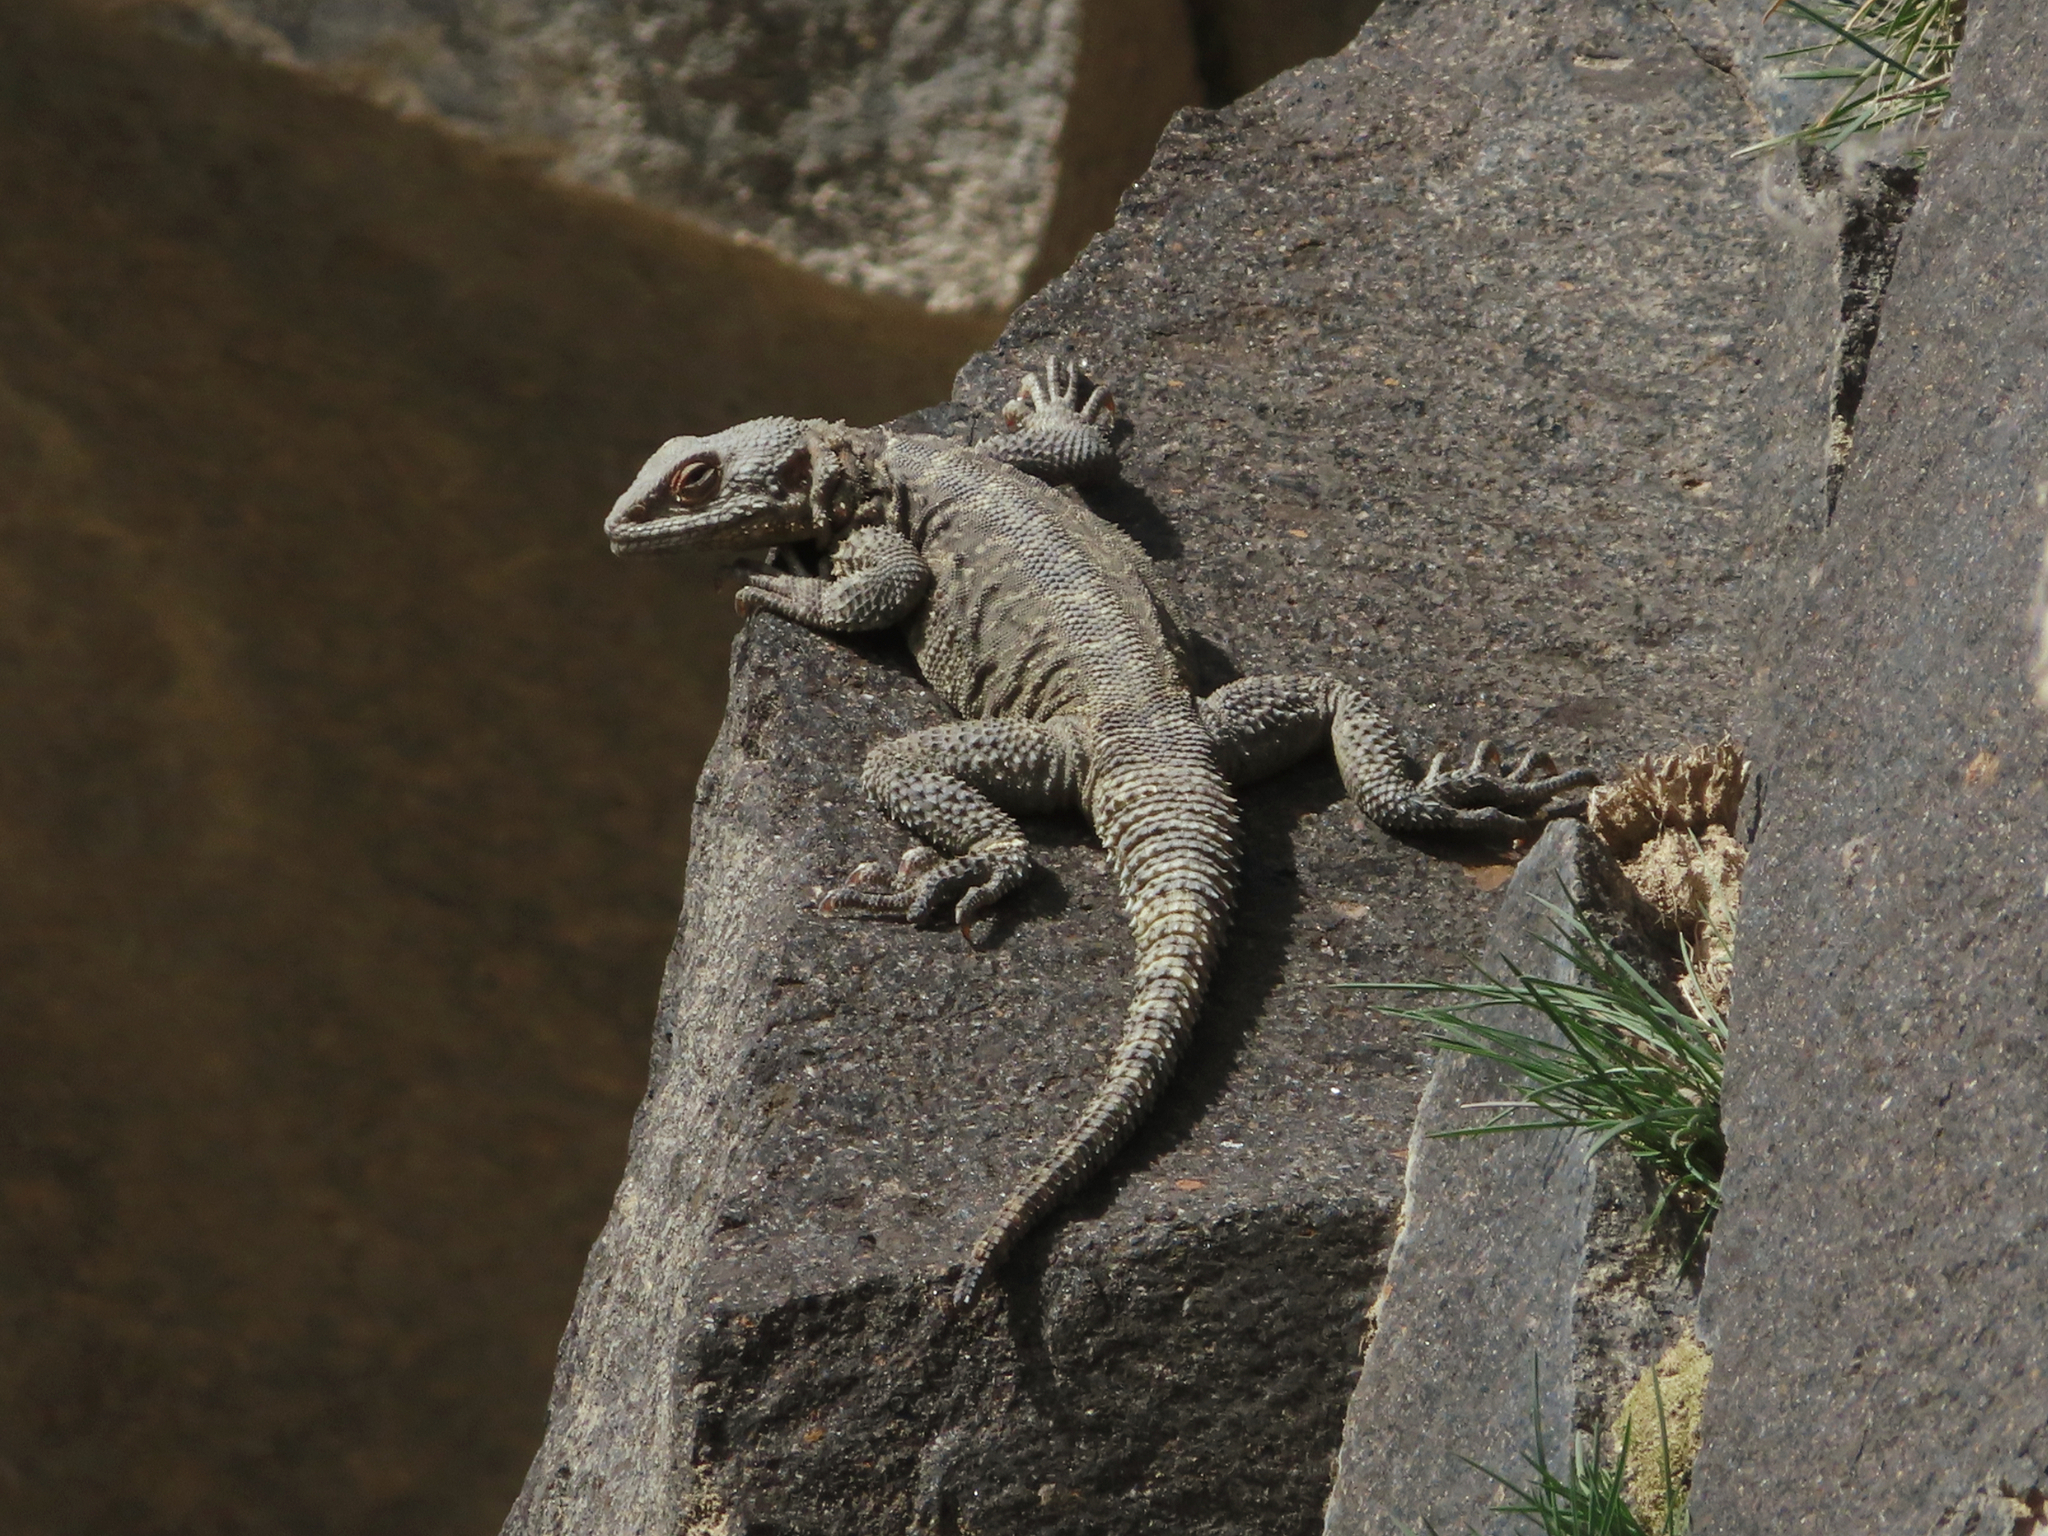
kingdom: Animalia
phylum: Chordata
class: Squamata
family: Agamidae
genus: Paralaudakia
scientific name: Paralaudakia caucasia
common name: Caucasian agama
